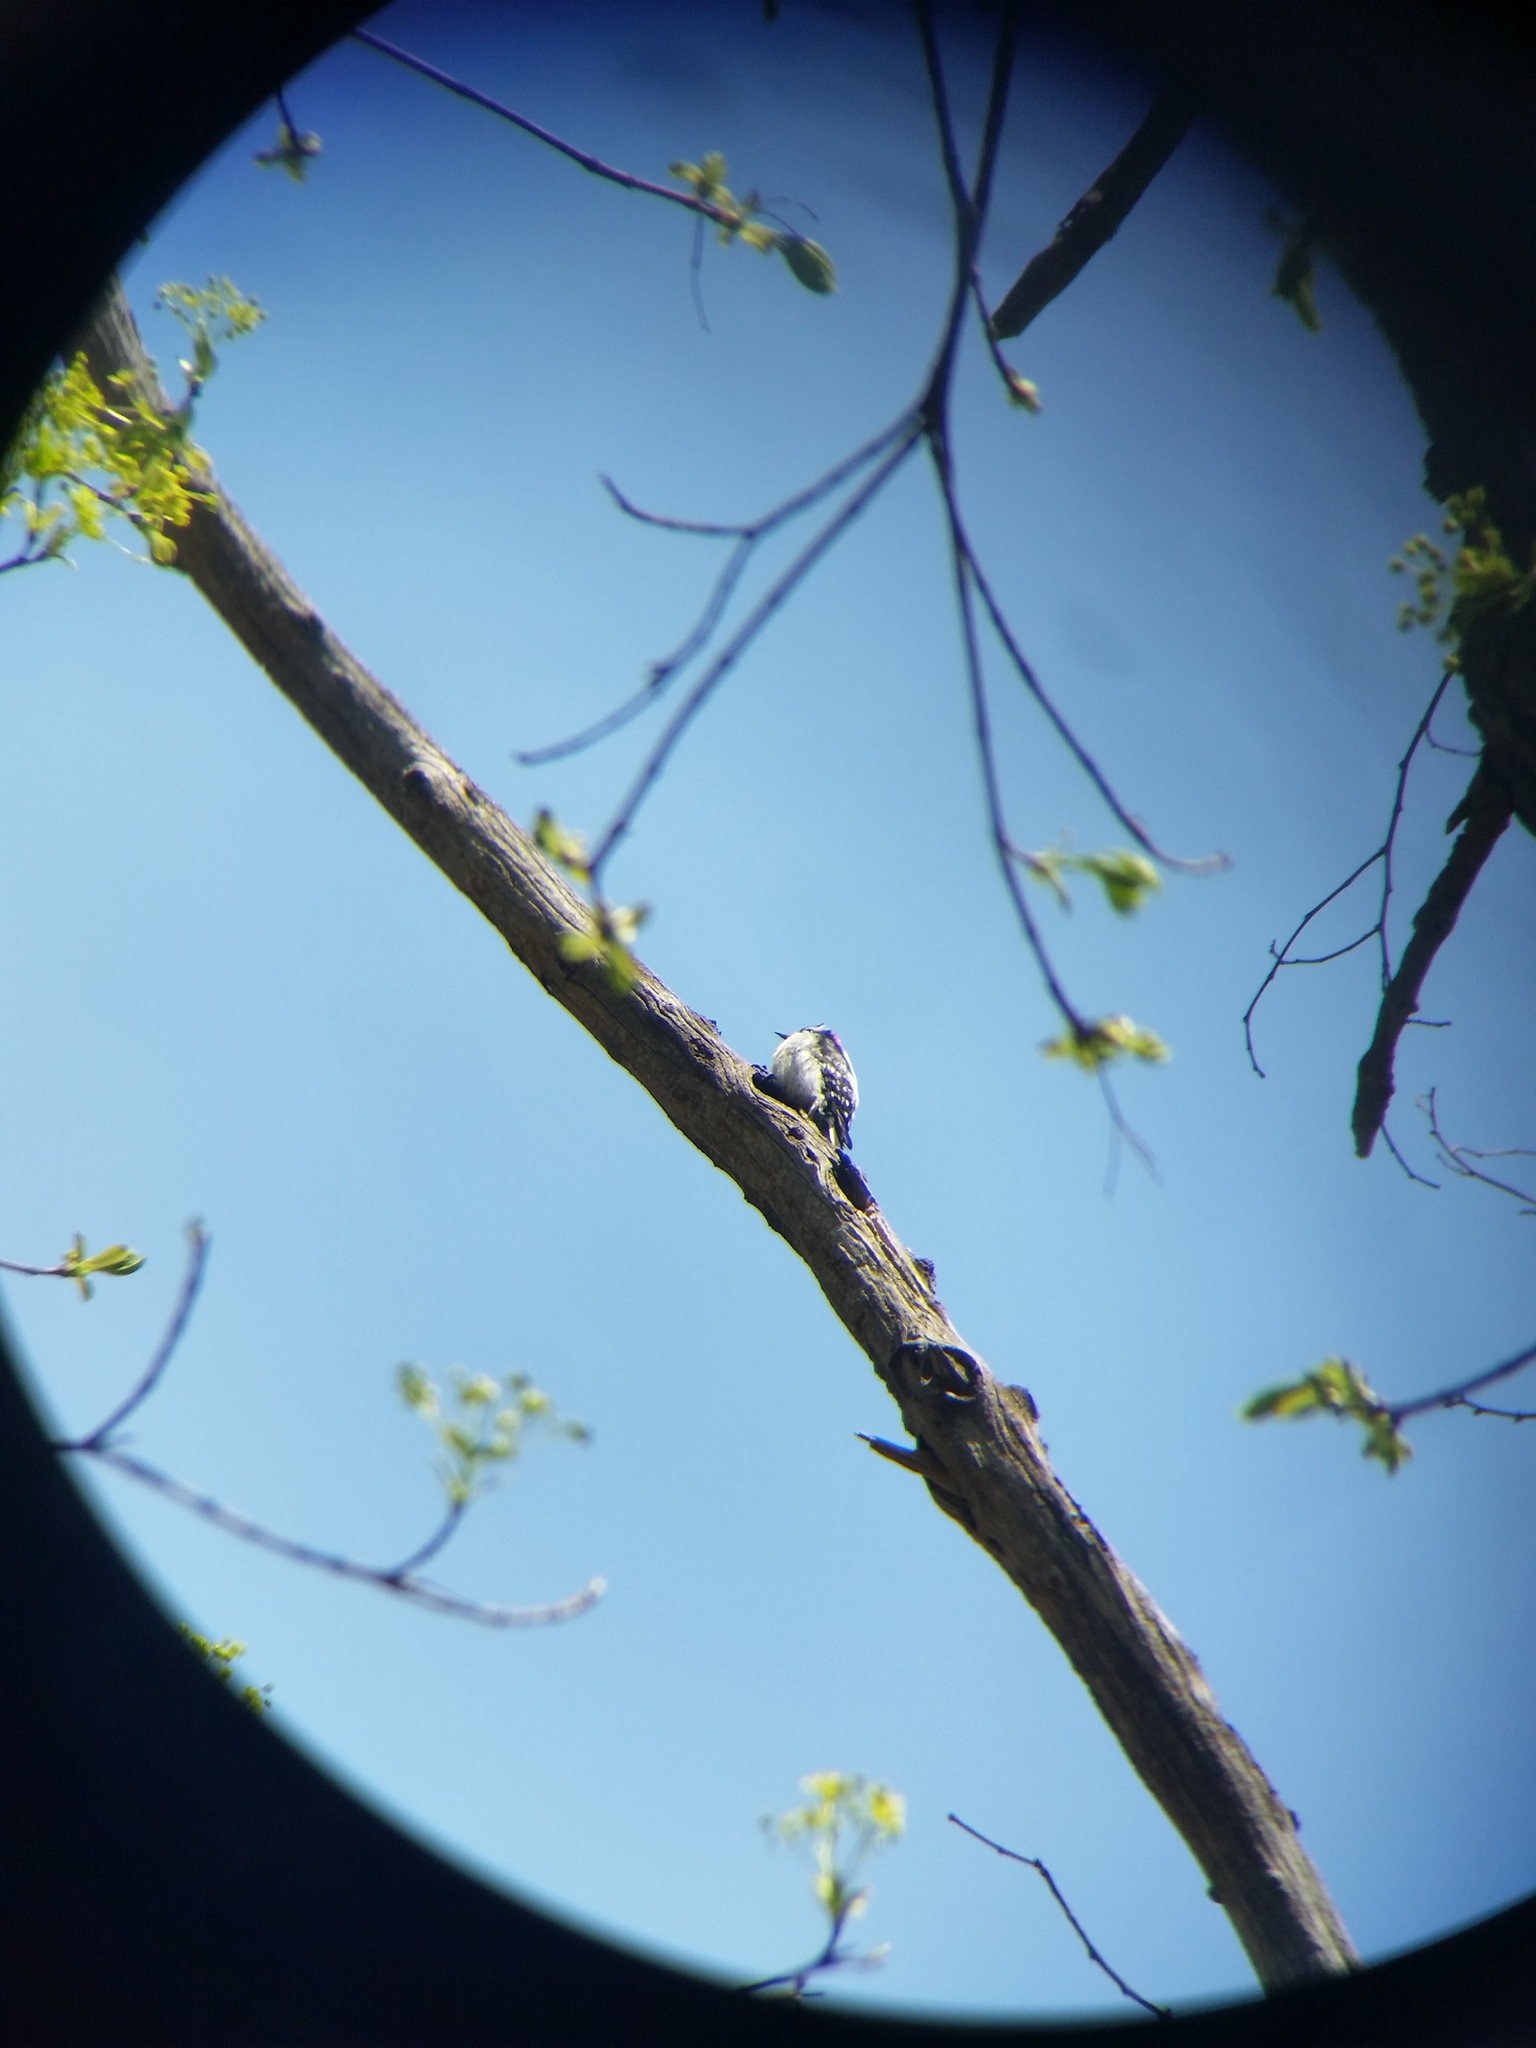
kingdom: Animalia
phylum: Chordata
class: Aves
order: Piciformes
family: Picidae
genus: Dryobates
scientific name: Dryobates pubescens
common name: Downy woodpecker
